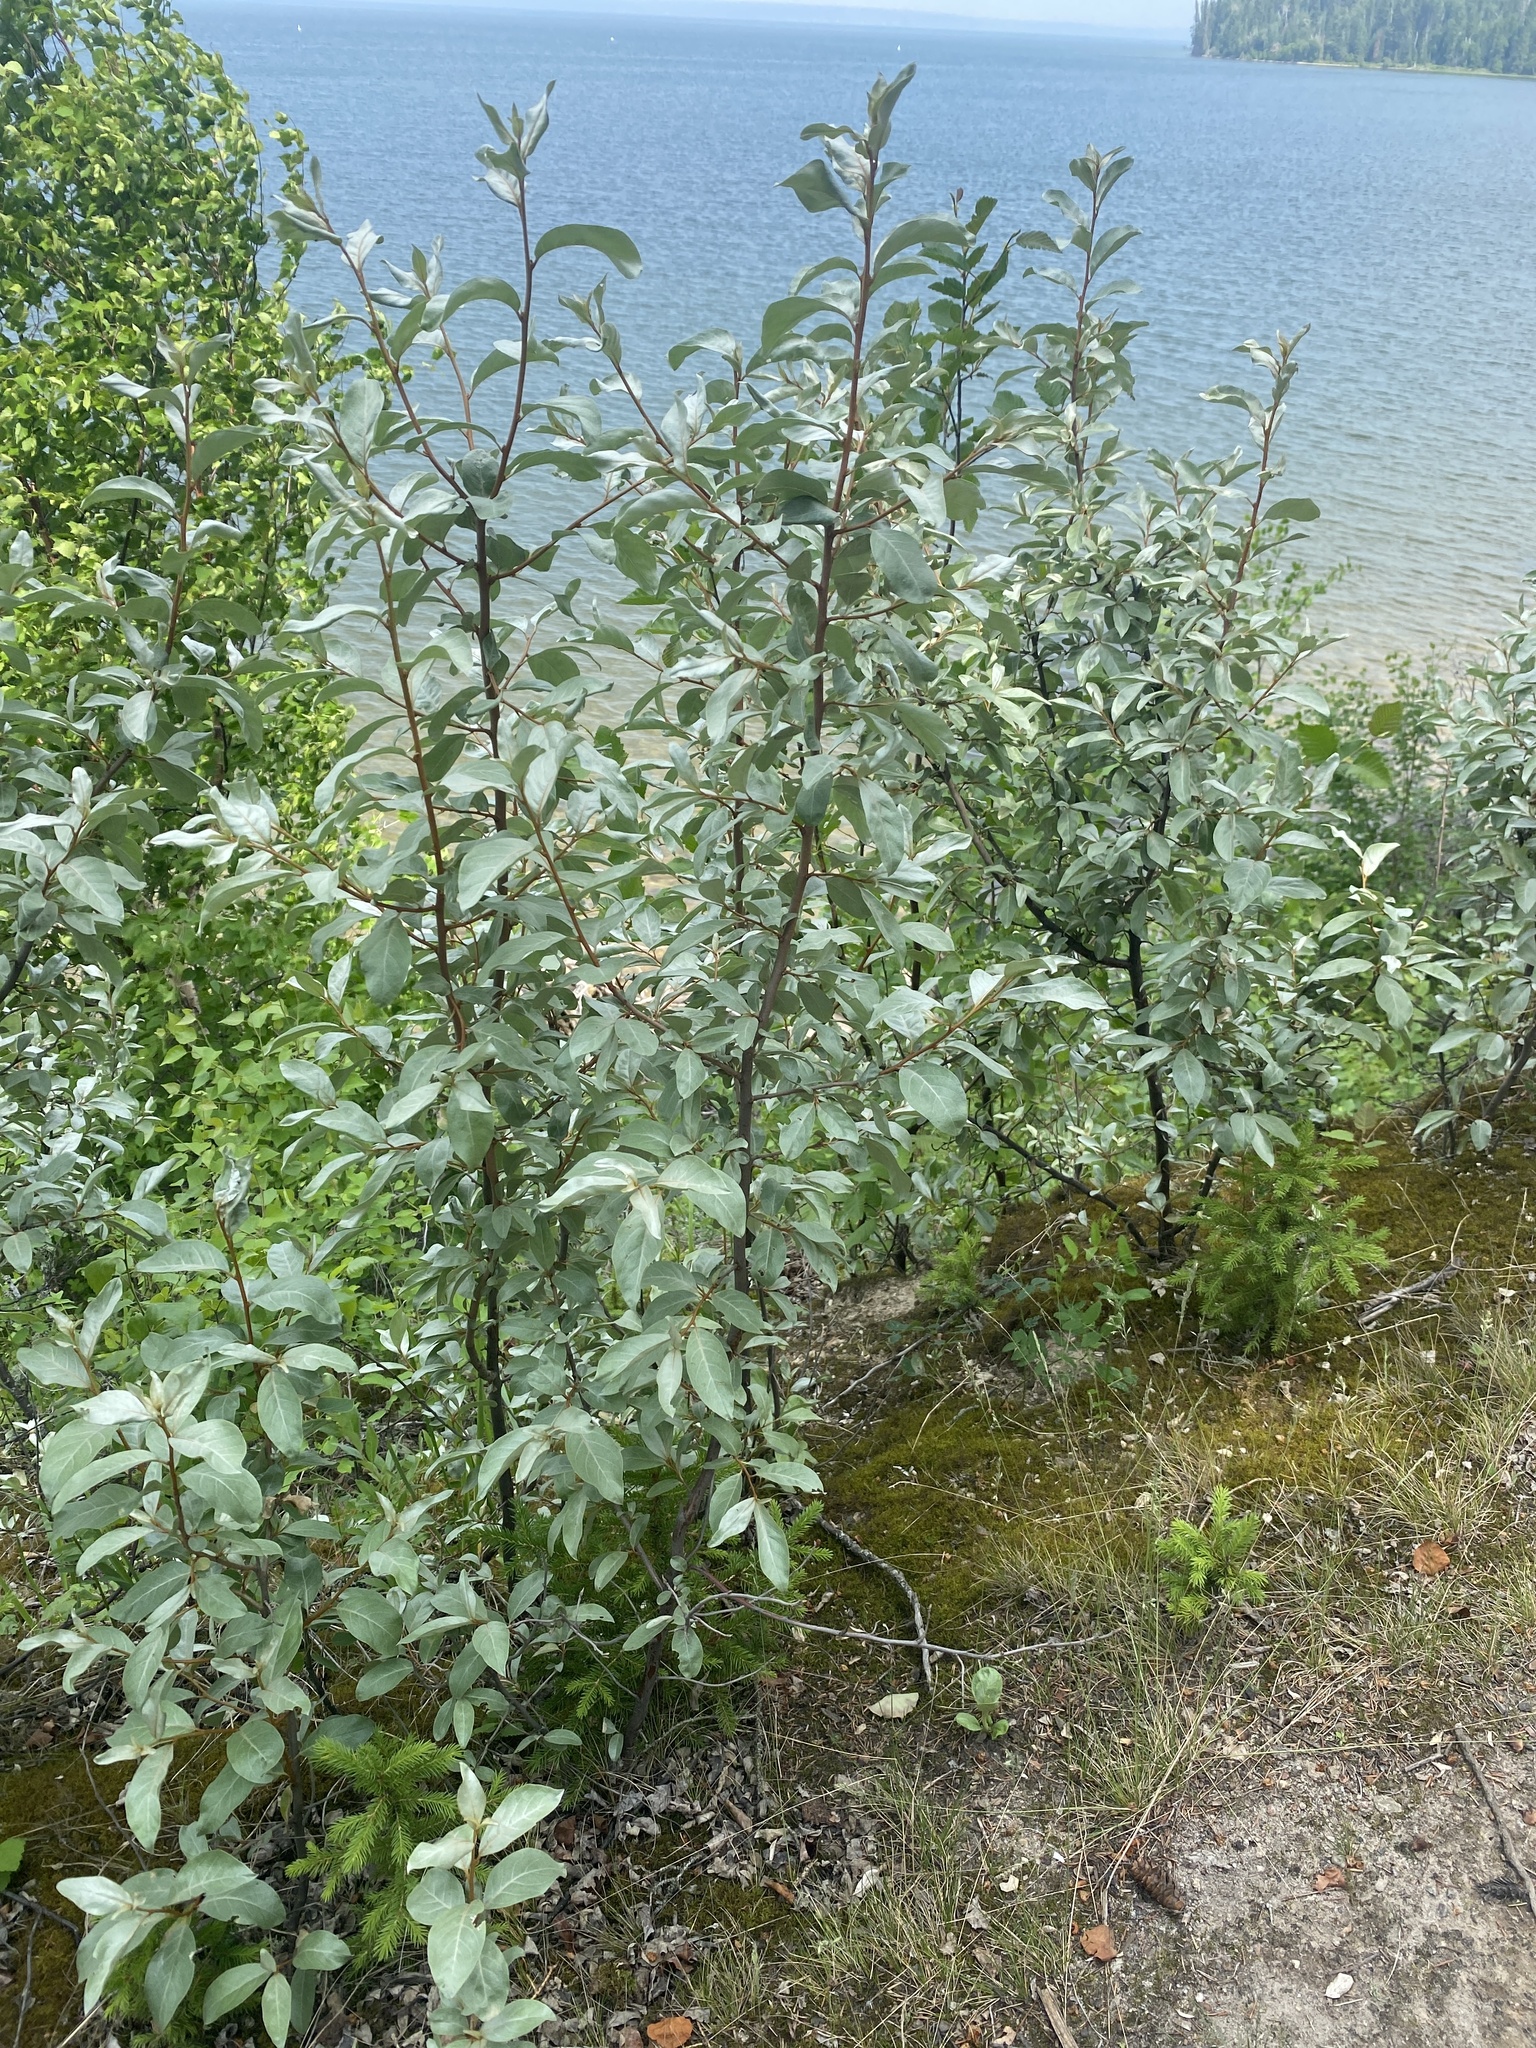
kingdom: Plantae
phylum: Tracheophyta
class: Magnoliopsida
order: Rosales
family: Elaeagnaceae
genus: Elaeagnus
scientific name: Elaeagnus commutata
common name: Silverberry
